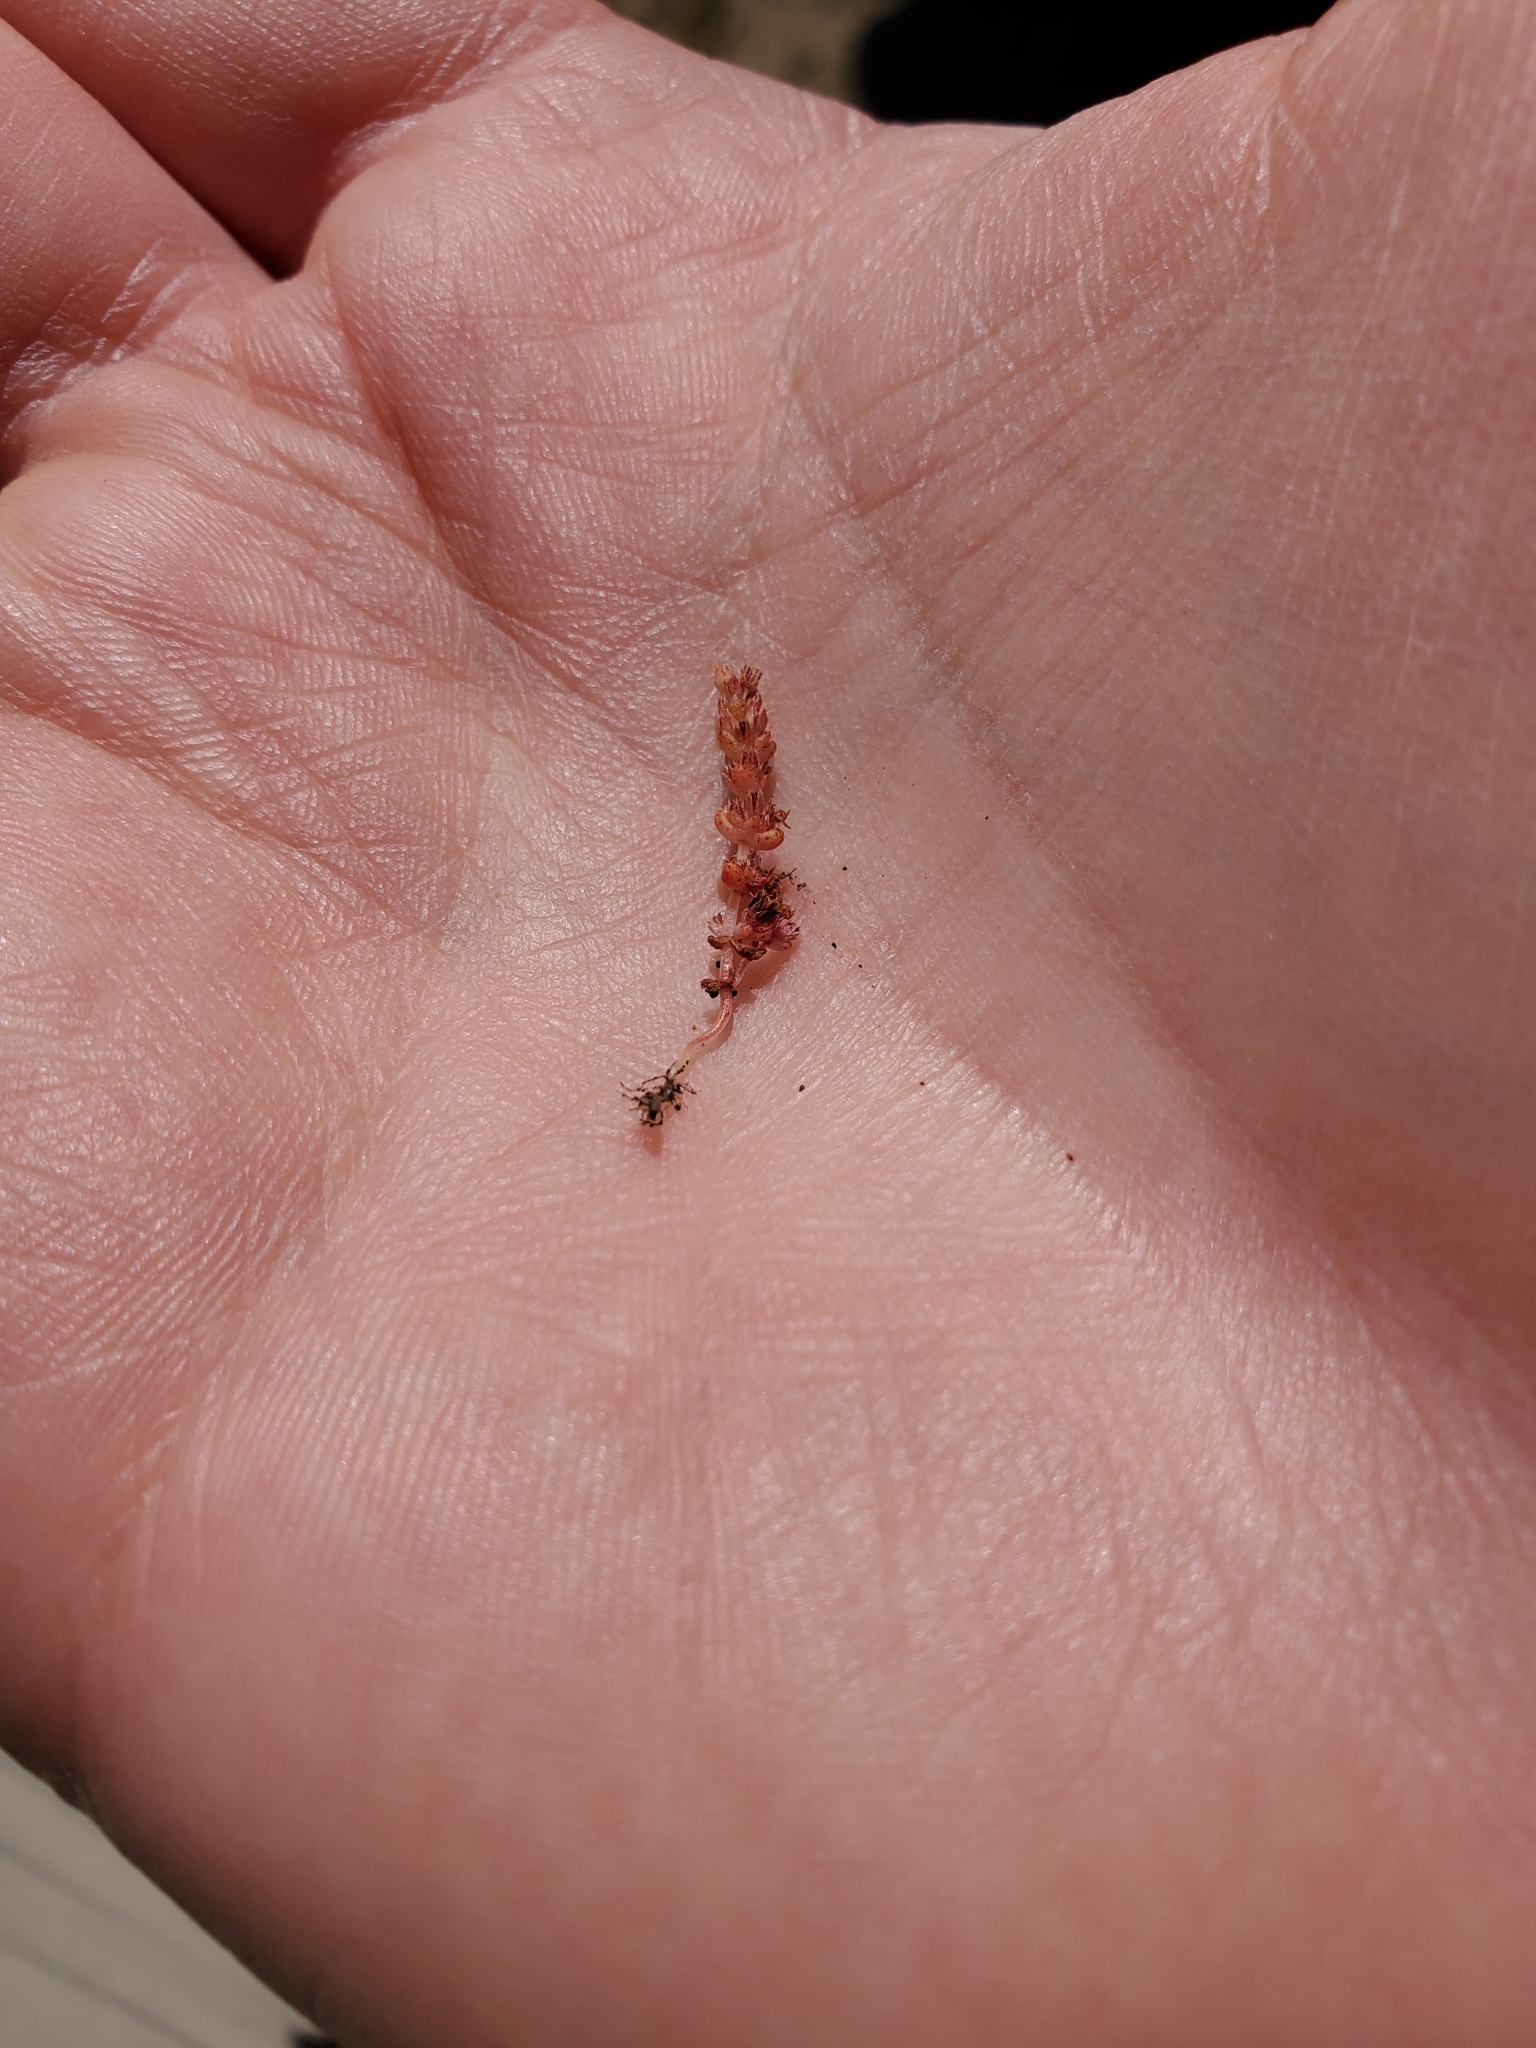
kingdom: Plantae
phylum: Tracheophyta
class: Magnoliopsida
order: Saxifragales
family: Crassulaceae
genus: Crassula
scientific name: Crassula connata
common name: Erect pygmyweed
